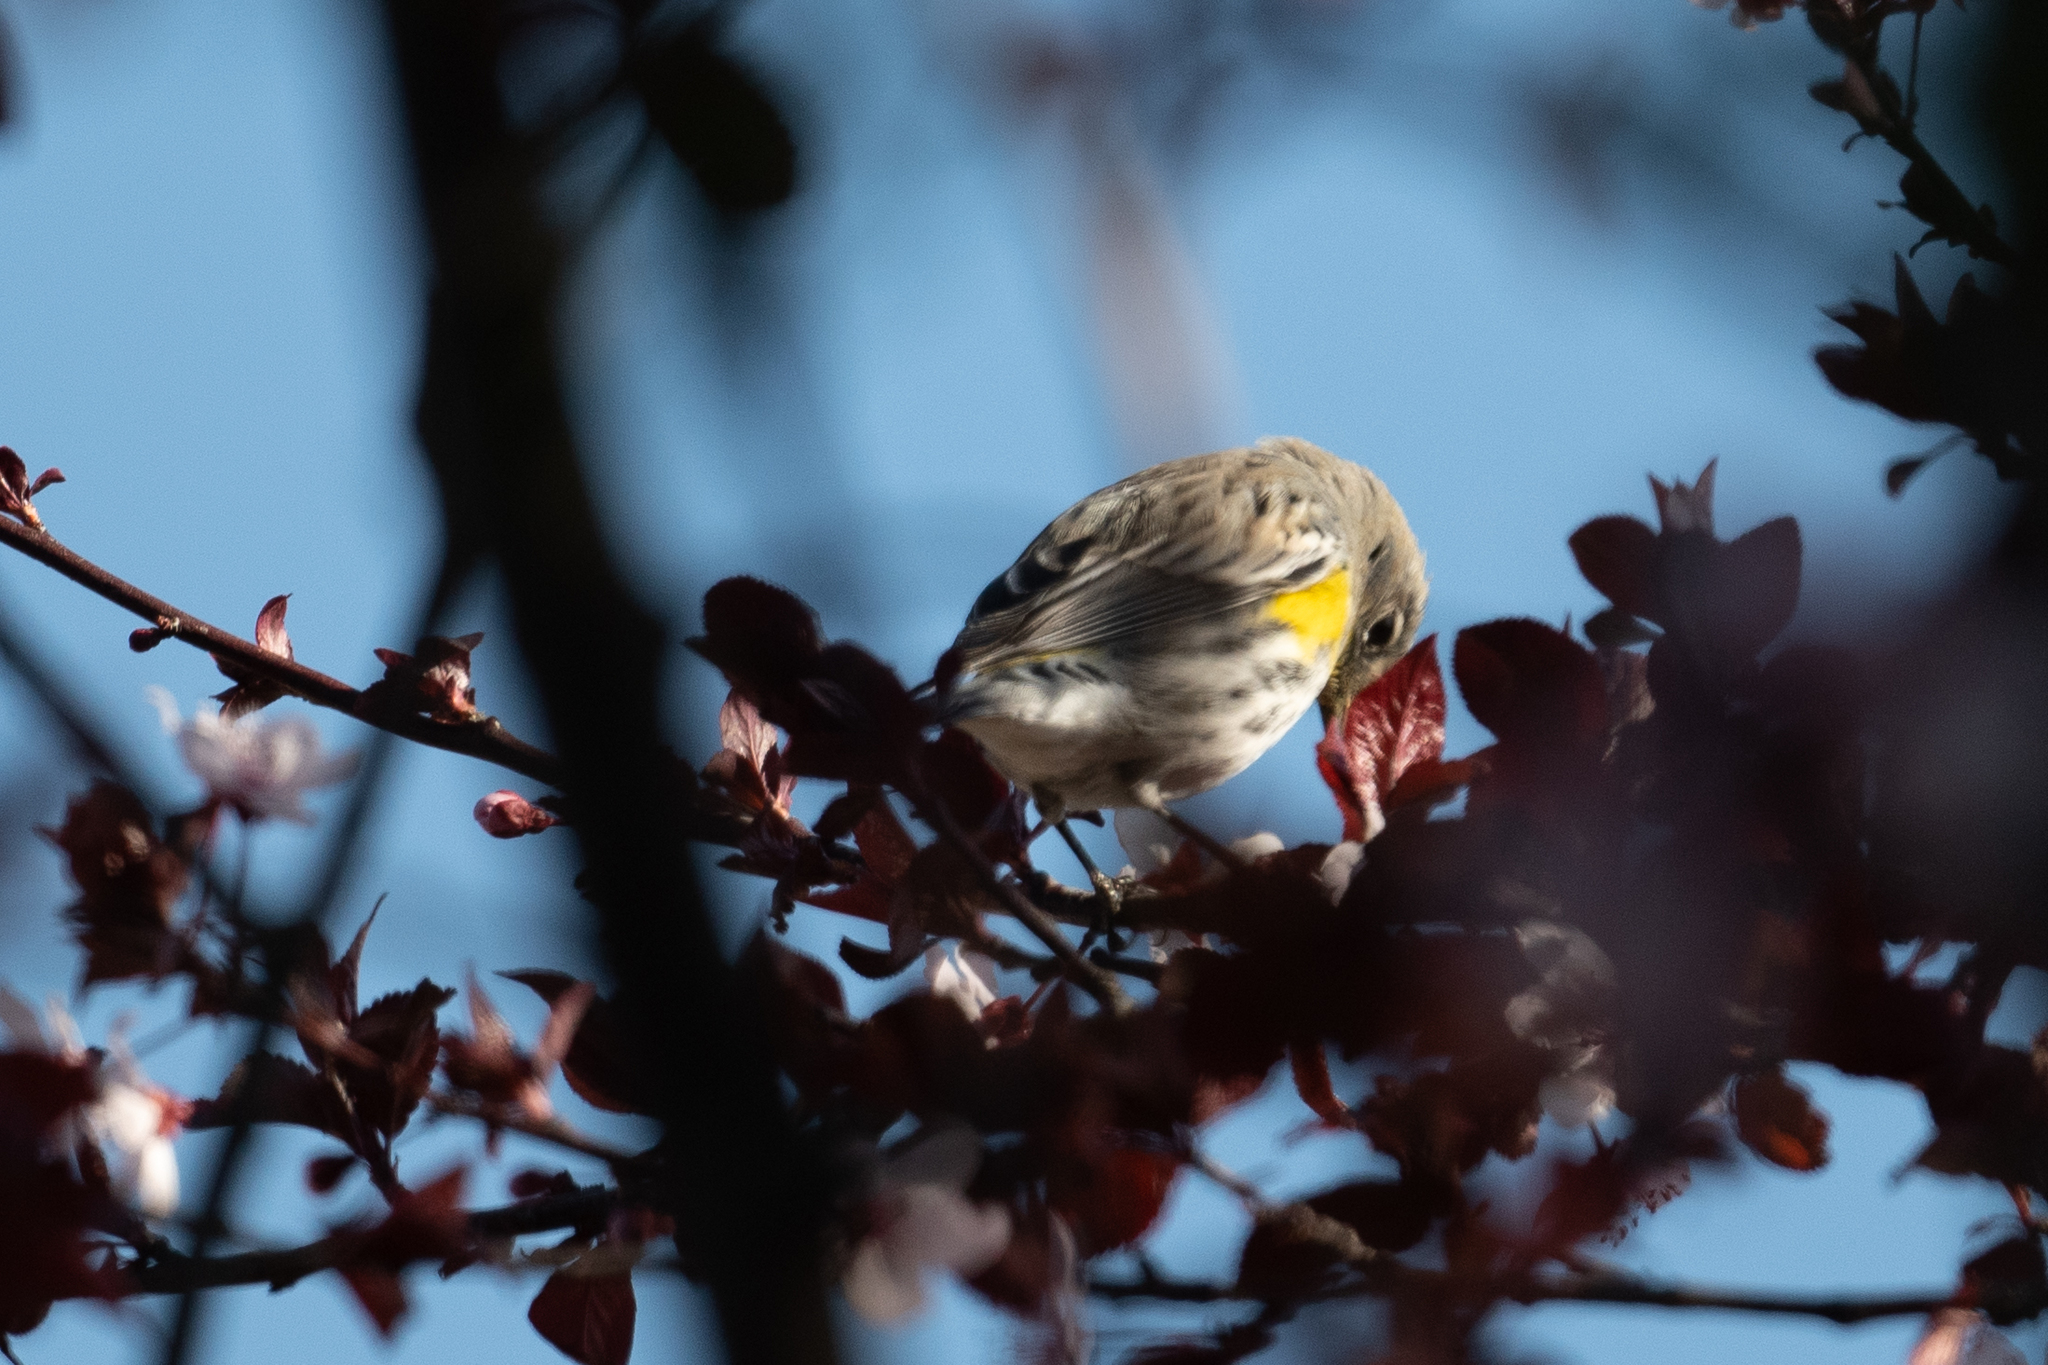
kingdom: Animalia
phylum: Chordata
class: Aves
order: Passeriformes
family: Parulidae
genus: Setophaga
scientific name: Setophaga coronata
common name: Myrtle warbler
